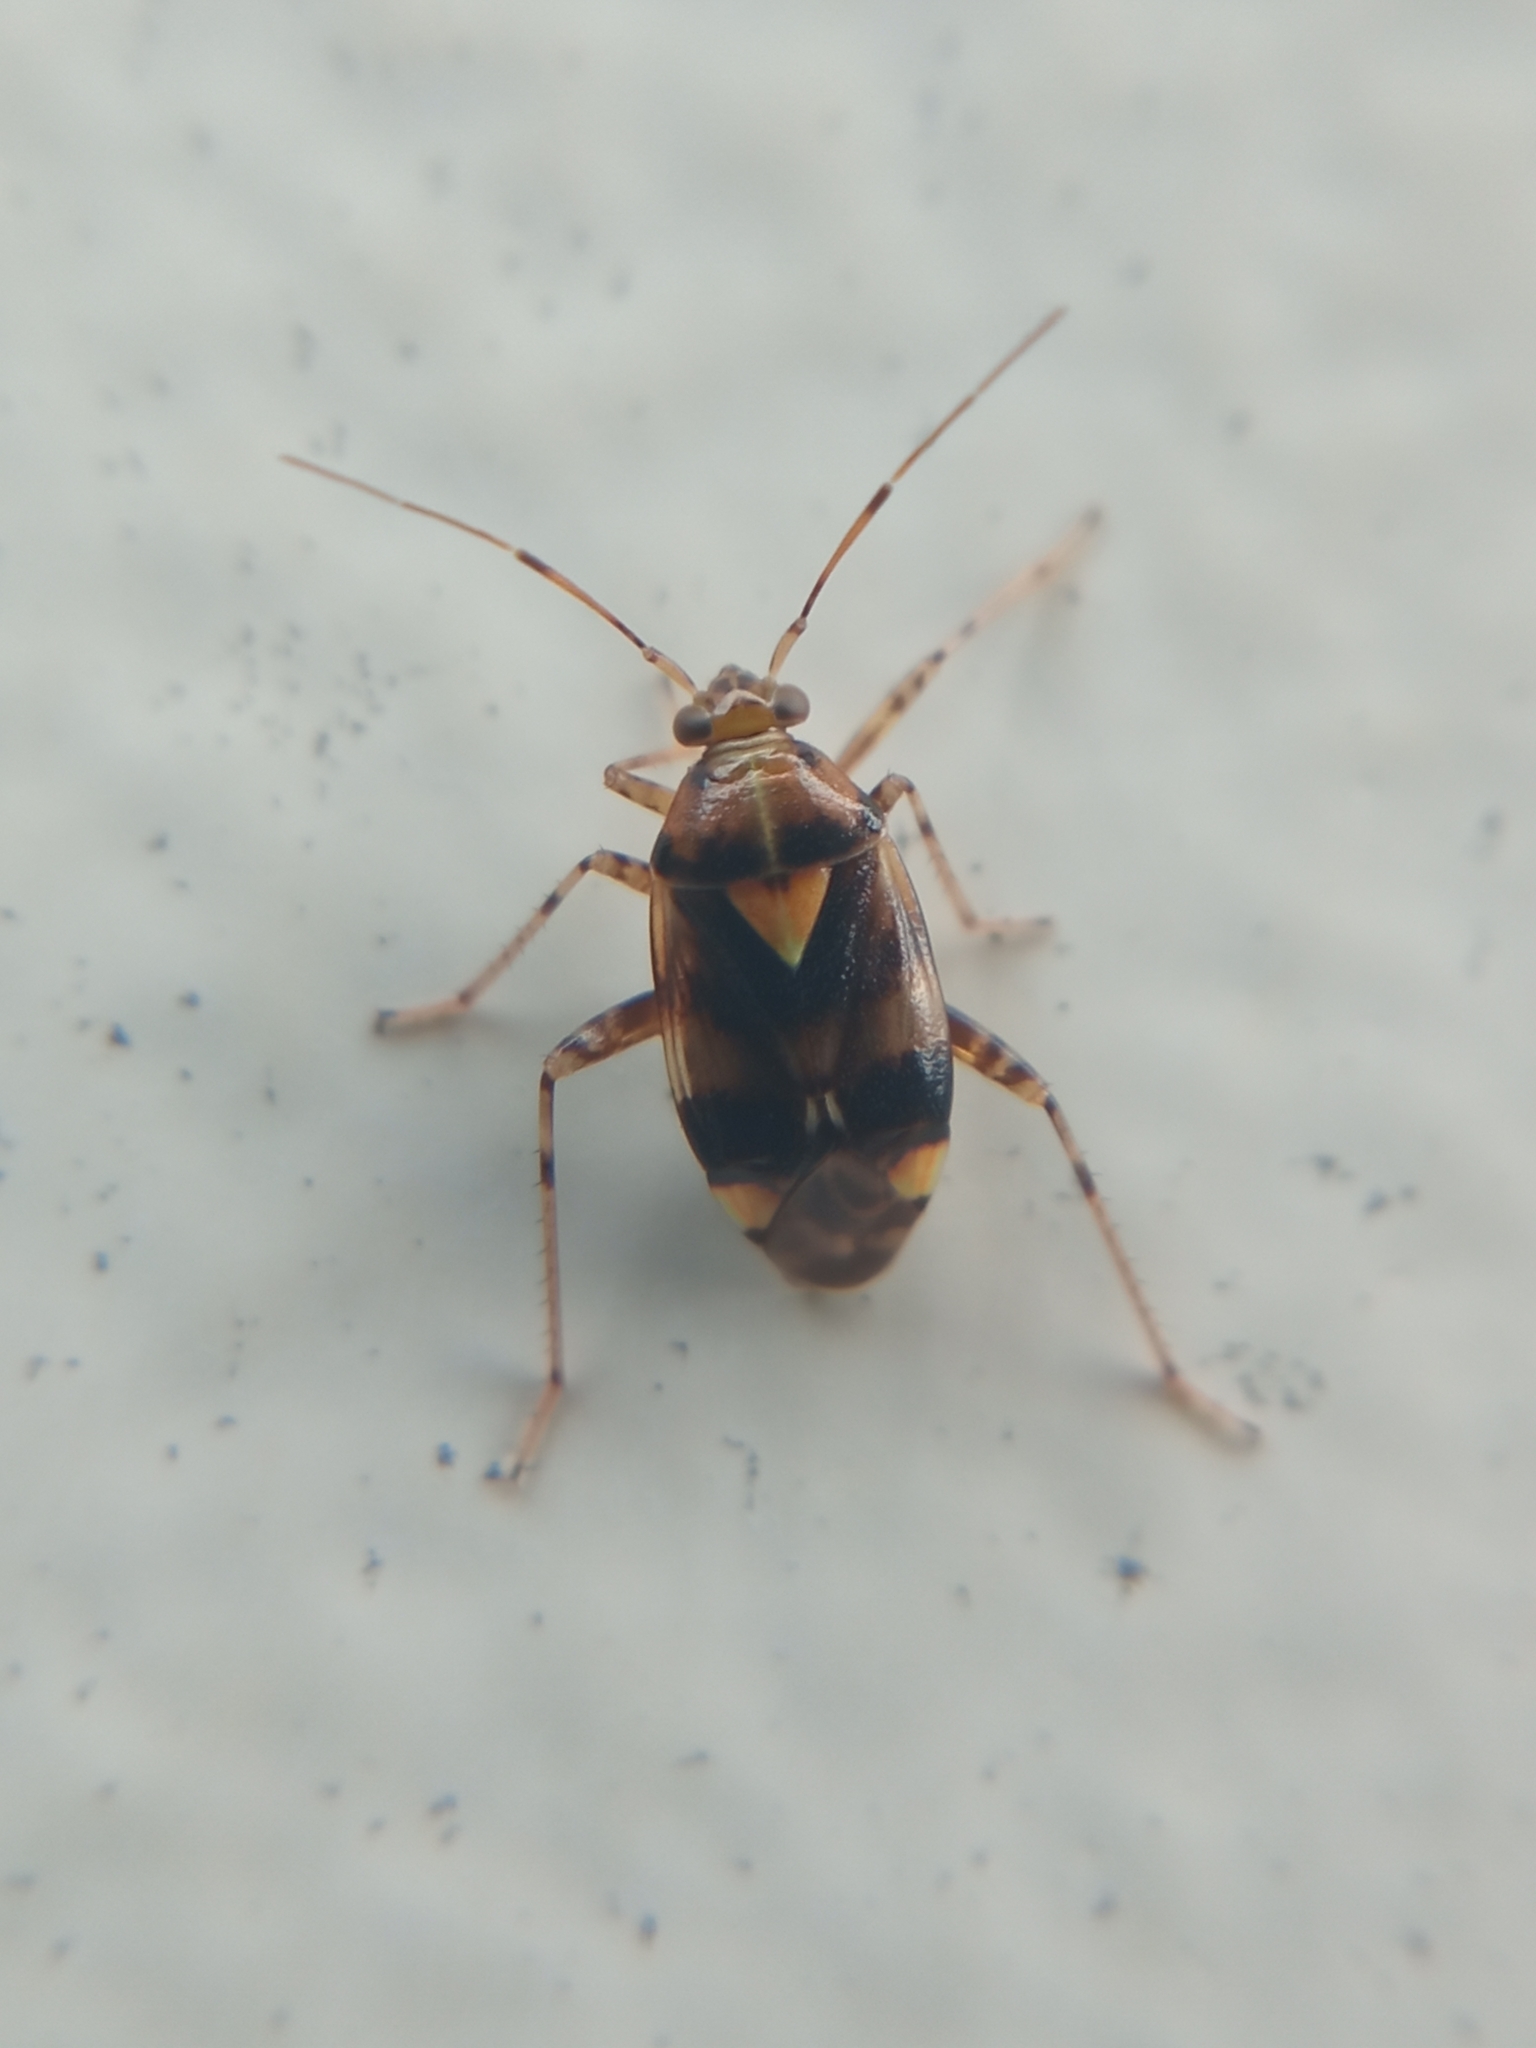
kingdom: Animalia
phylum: Arthropoda
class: Insecta
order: Hemiptera
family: Miridae
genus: Liocoris
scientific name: Liocoris tripustulatus
